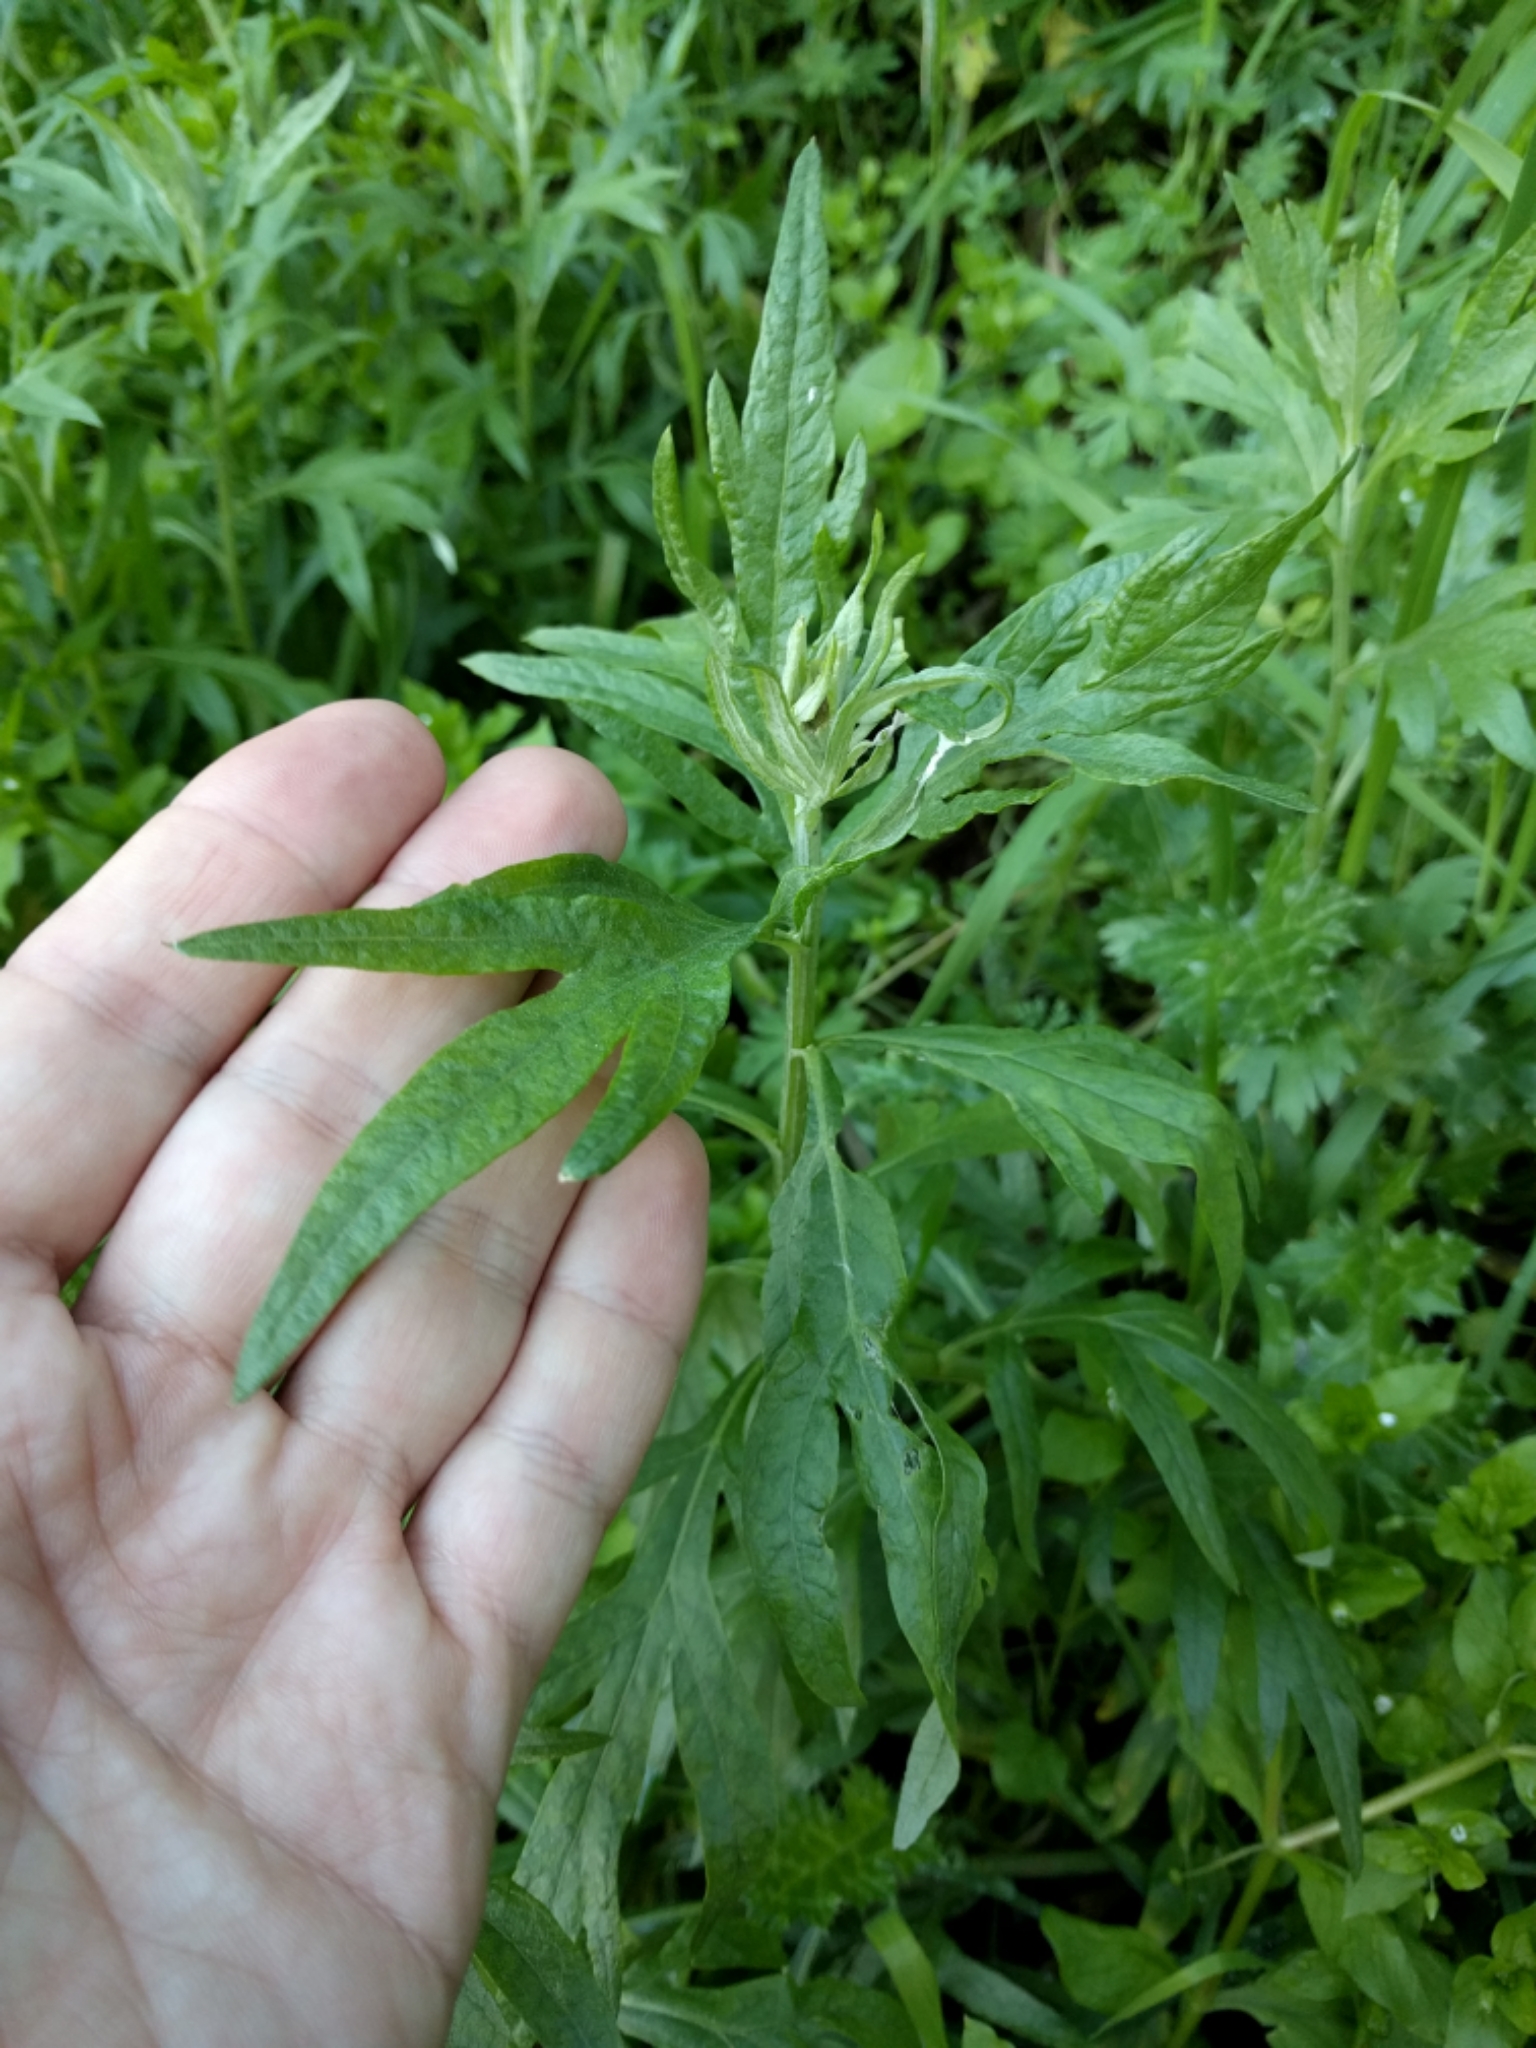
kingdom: Plantae
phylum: Tracheophyta
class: Magnoliopsida
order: Asterales
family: Asteraceae
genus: Artemisia
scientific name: Artemisia douglasiana
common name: Northwest mugwort
